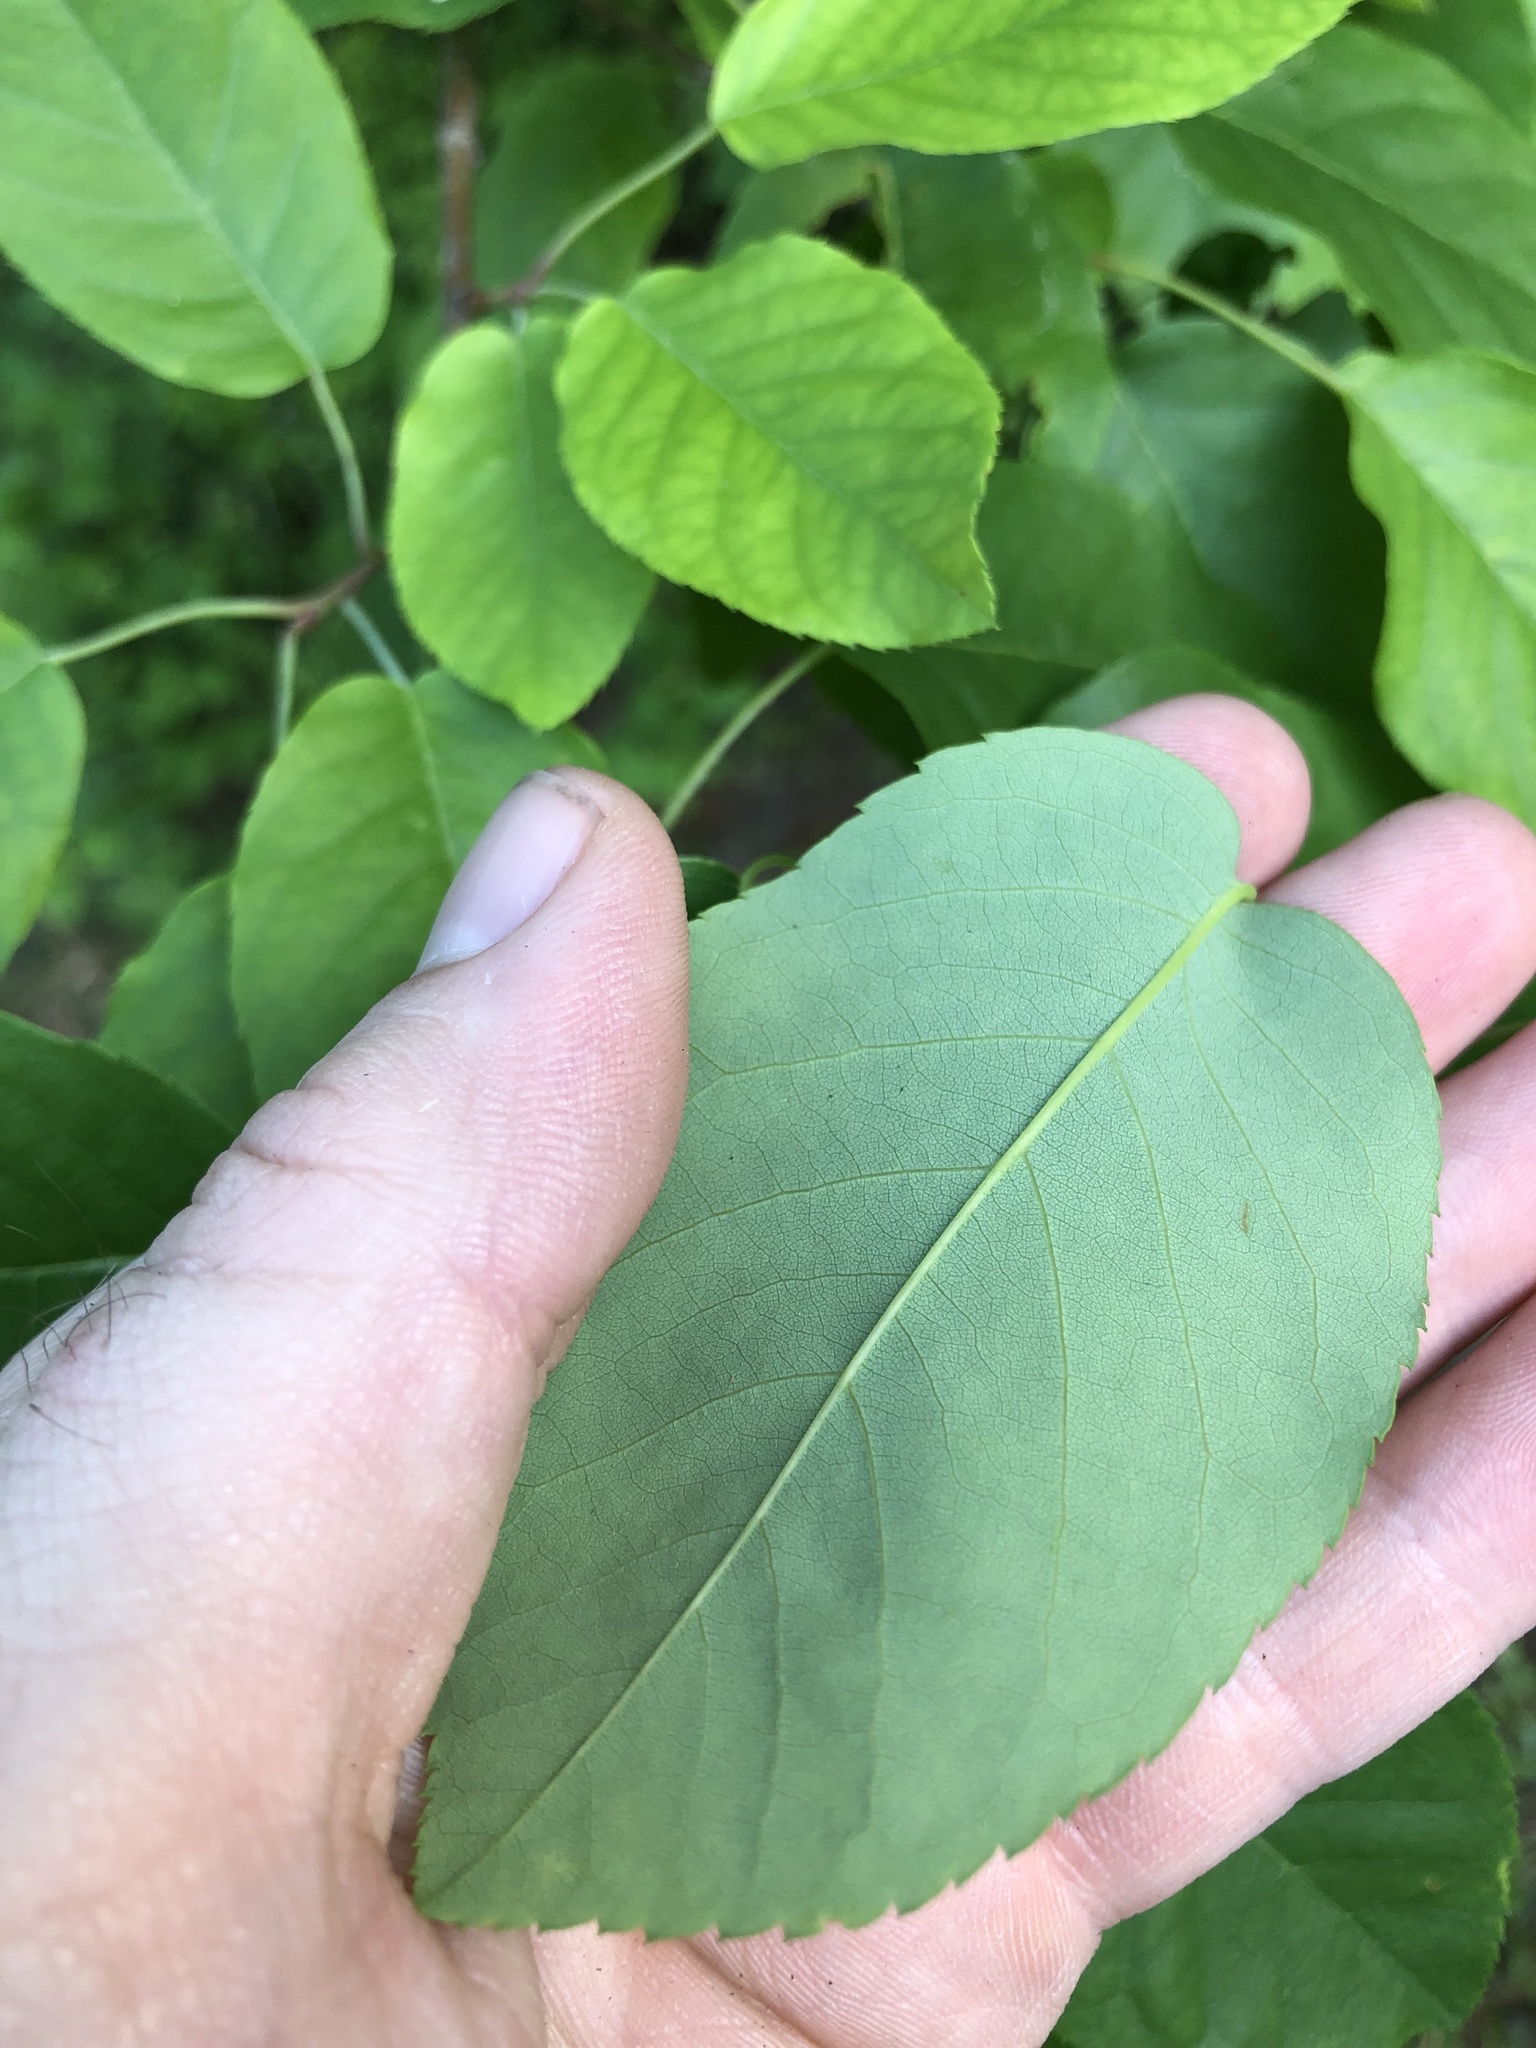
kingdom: Plantae
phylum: Tracheophyta
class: Magnoliopsida
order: Rosales
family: Rosaceae
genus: Amelanchier
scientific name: Amelanchier arborea
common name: Downy serviceberry
